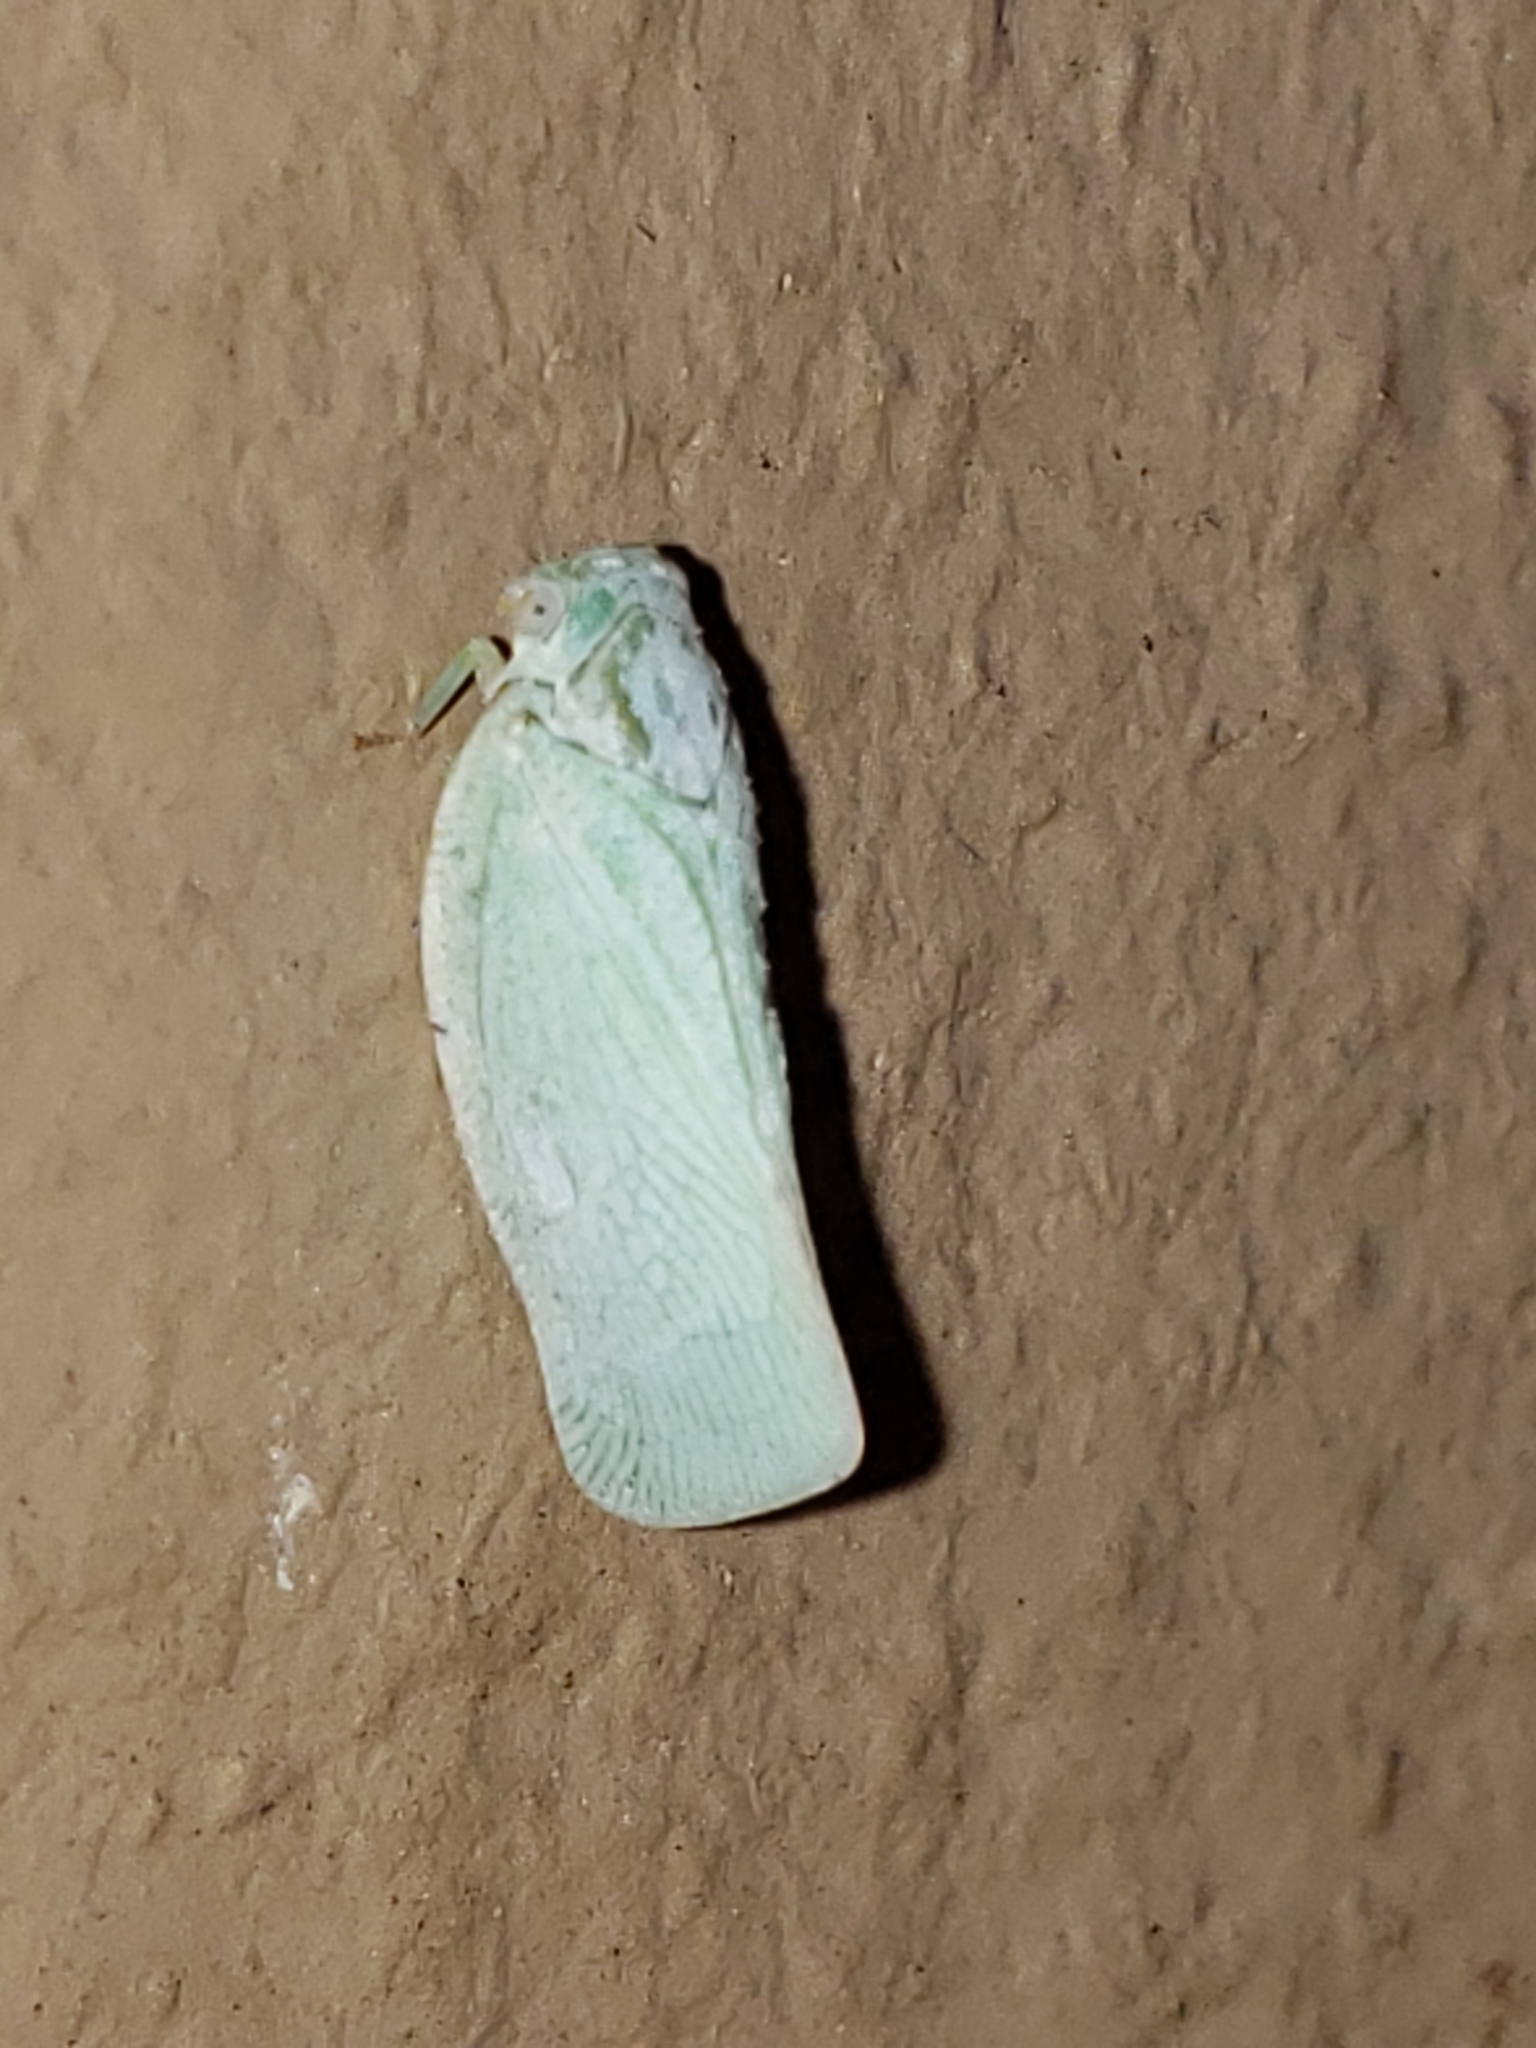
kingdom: Animalia
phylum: Arthropoda
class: Insecta
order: Hemiptera
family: Flatidae
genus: Flatormenis
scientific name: Flatormenis proxima
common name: Northern flatid planthopper
